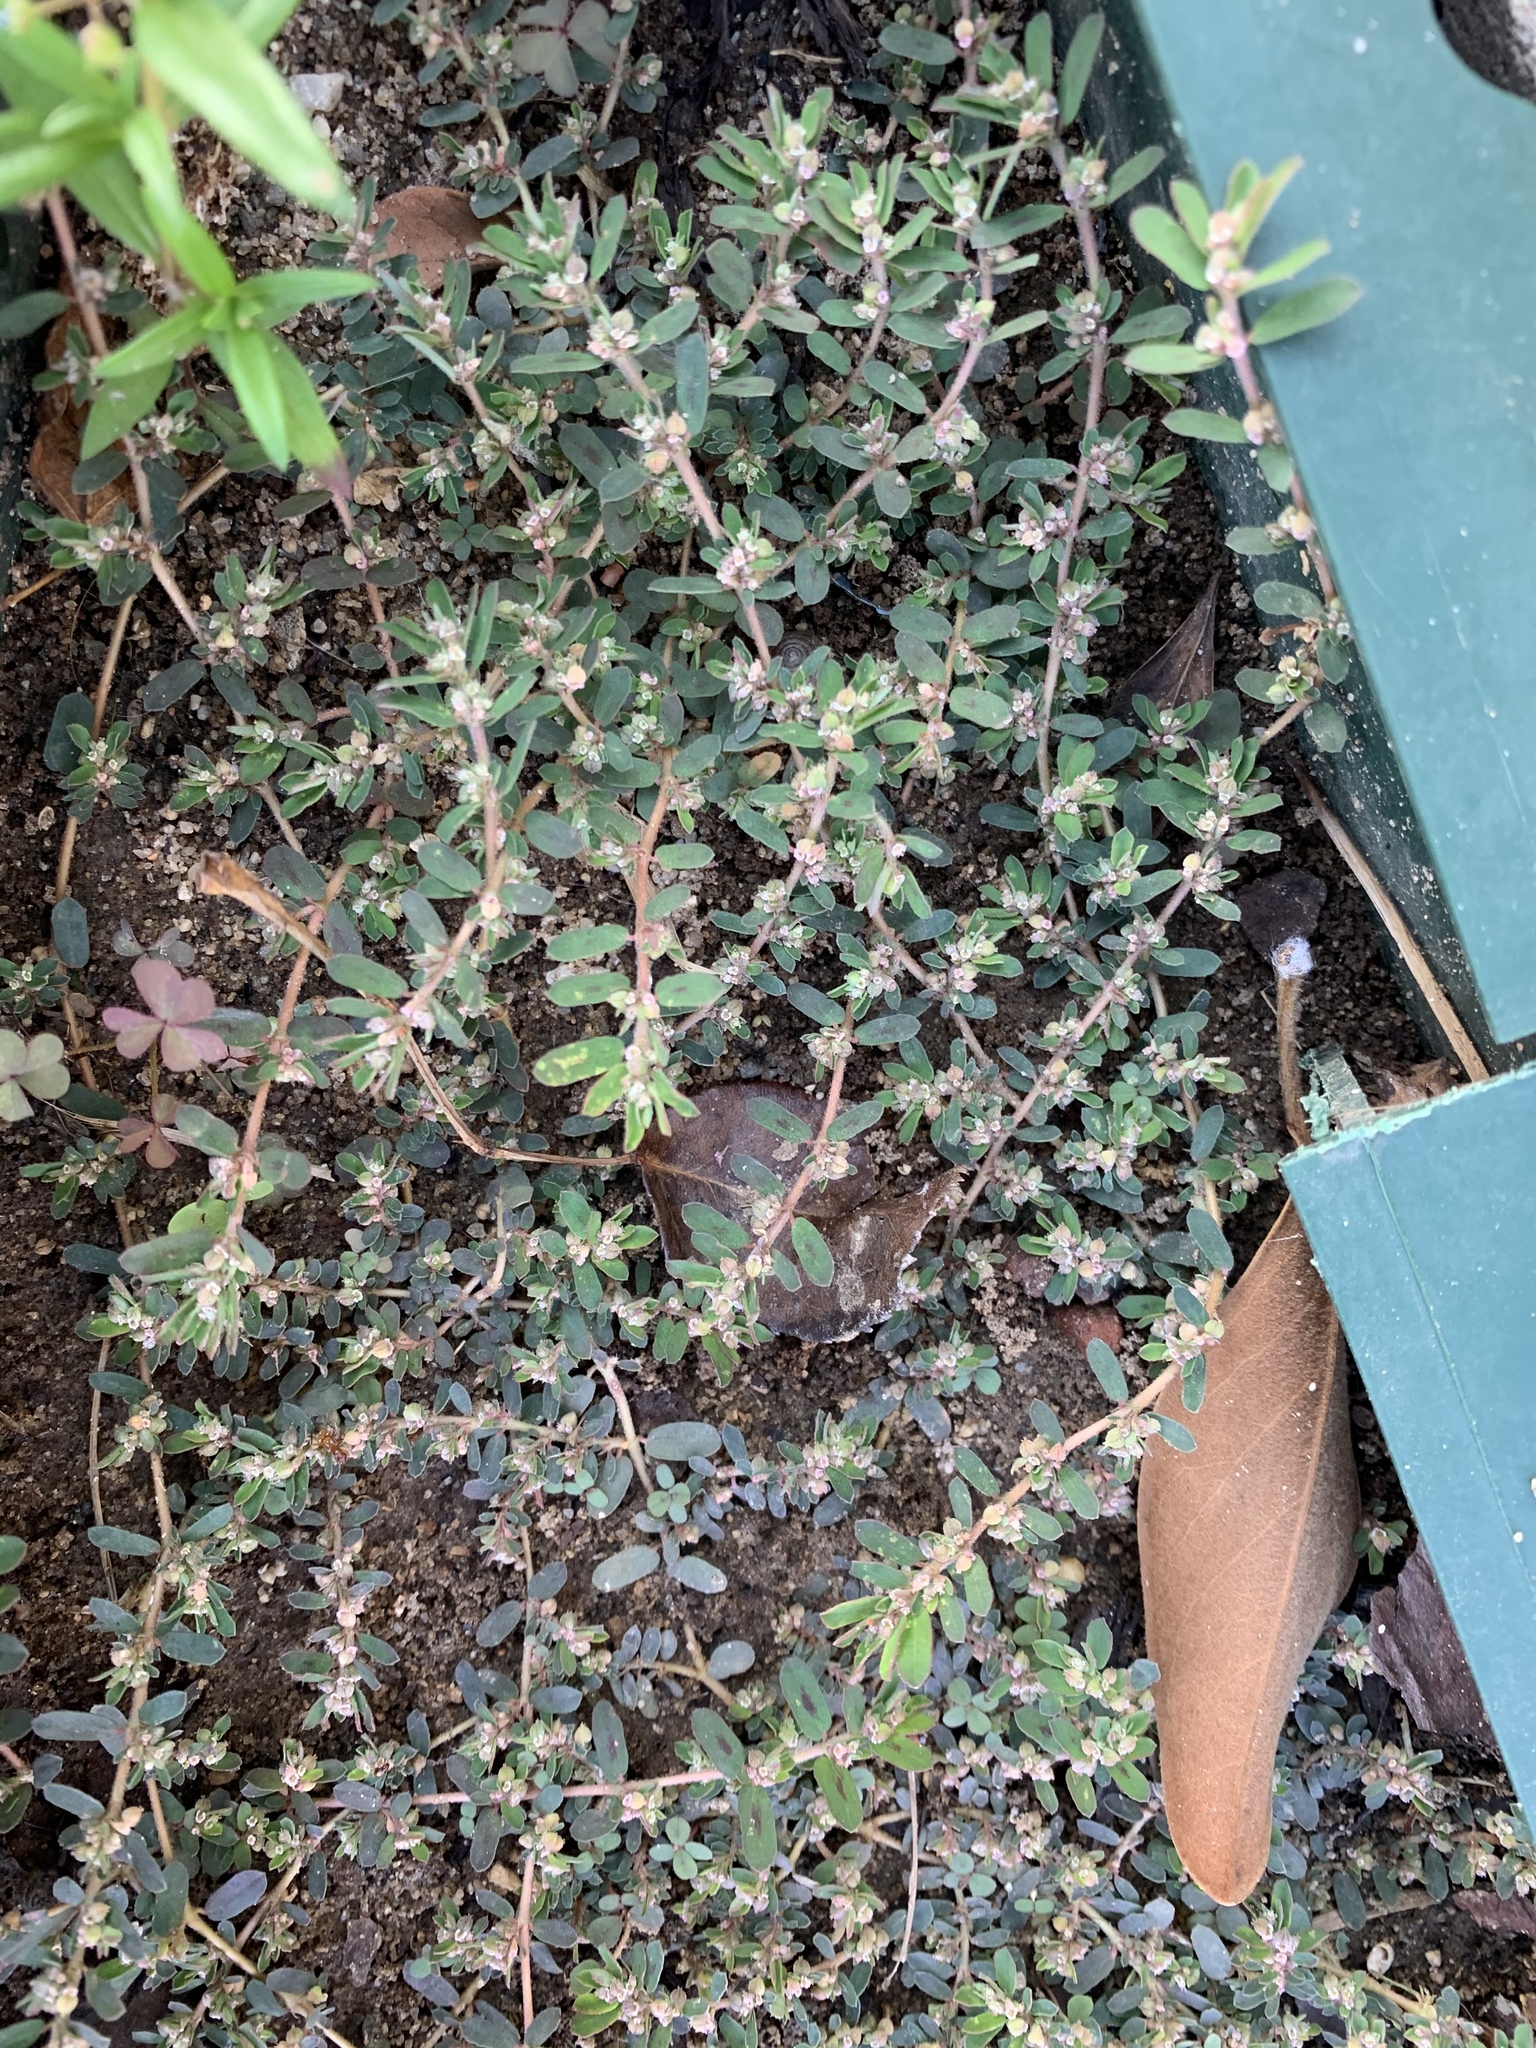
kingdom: Plantae
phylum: Tracheophyta
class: Magnoliopsida
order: Malpighiales
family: Euphorbiaceae
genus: Euphorbia
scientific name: Euphorbia maculata
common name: Spotted spurge
